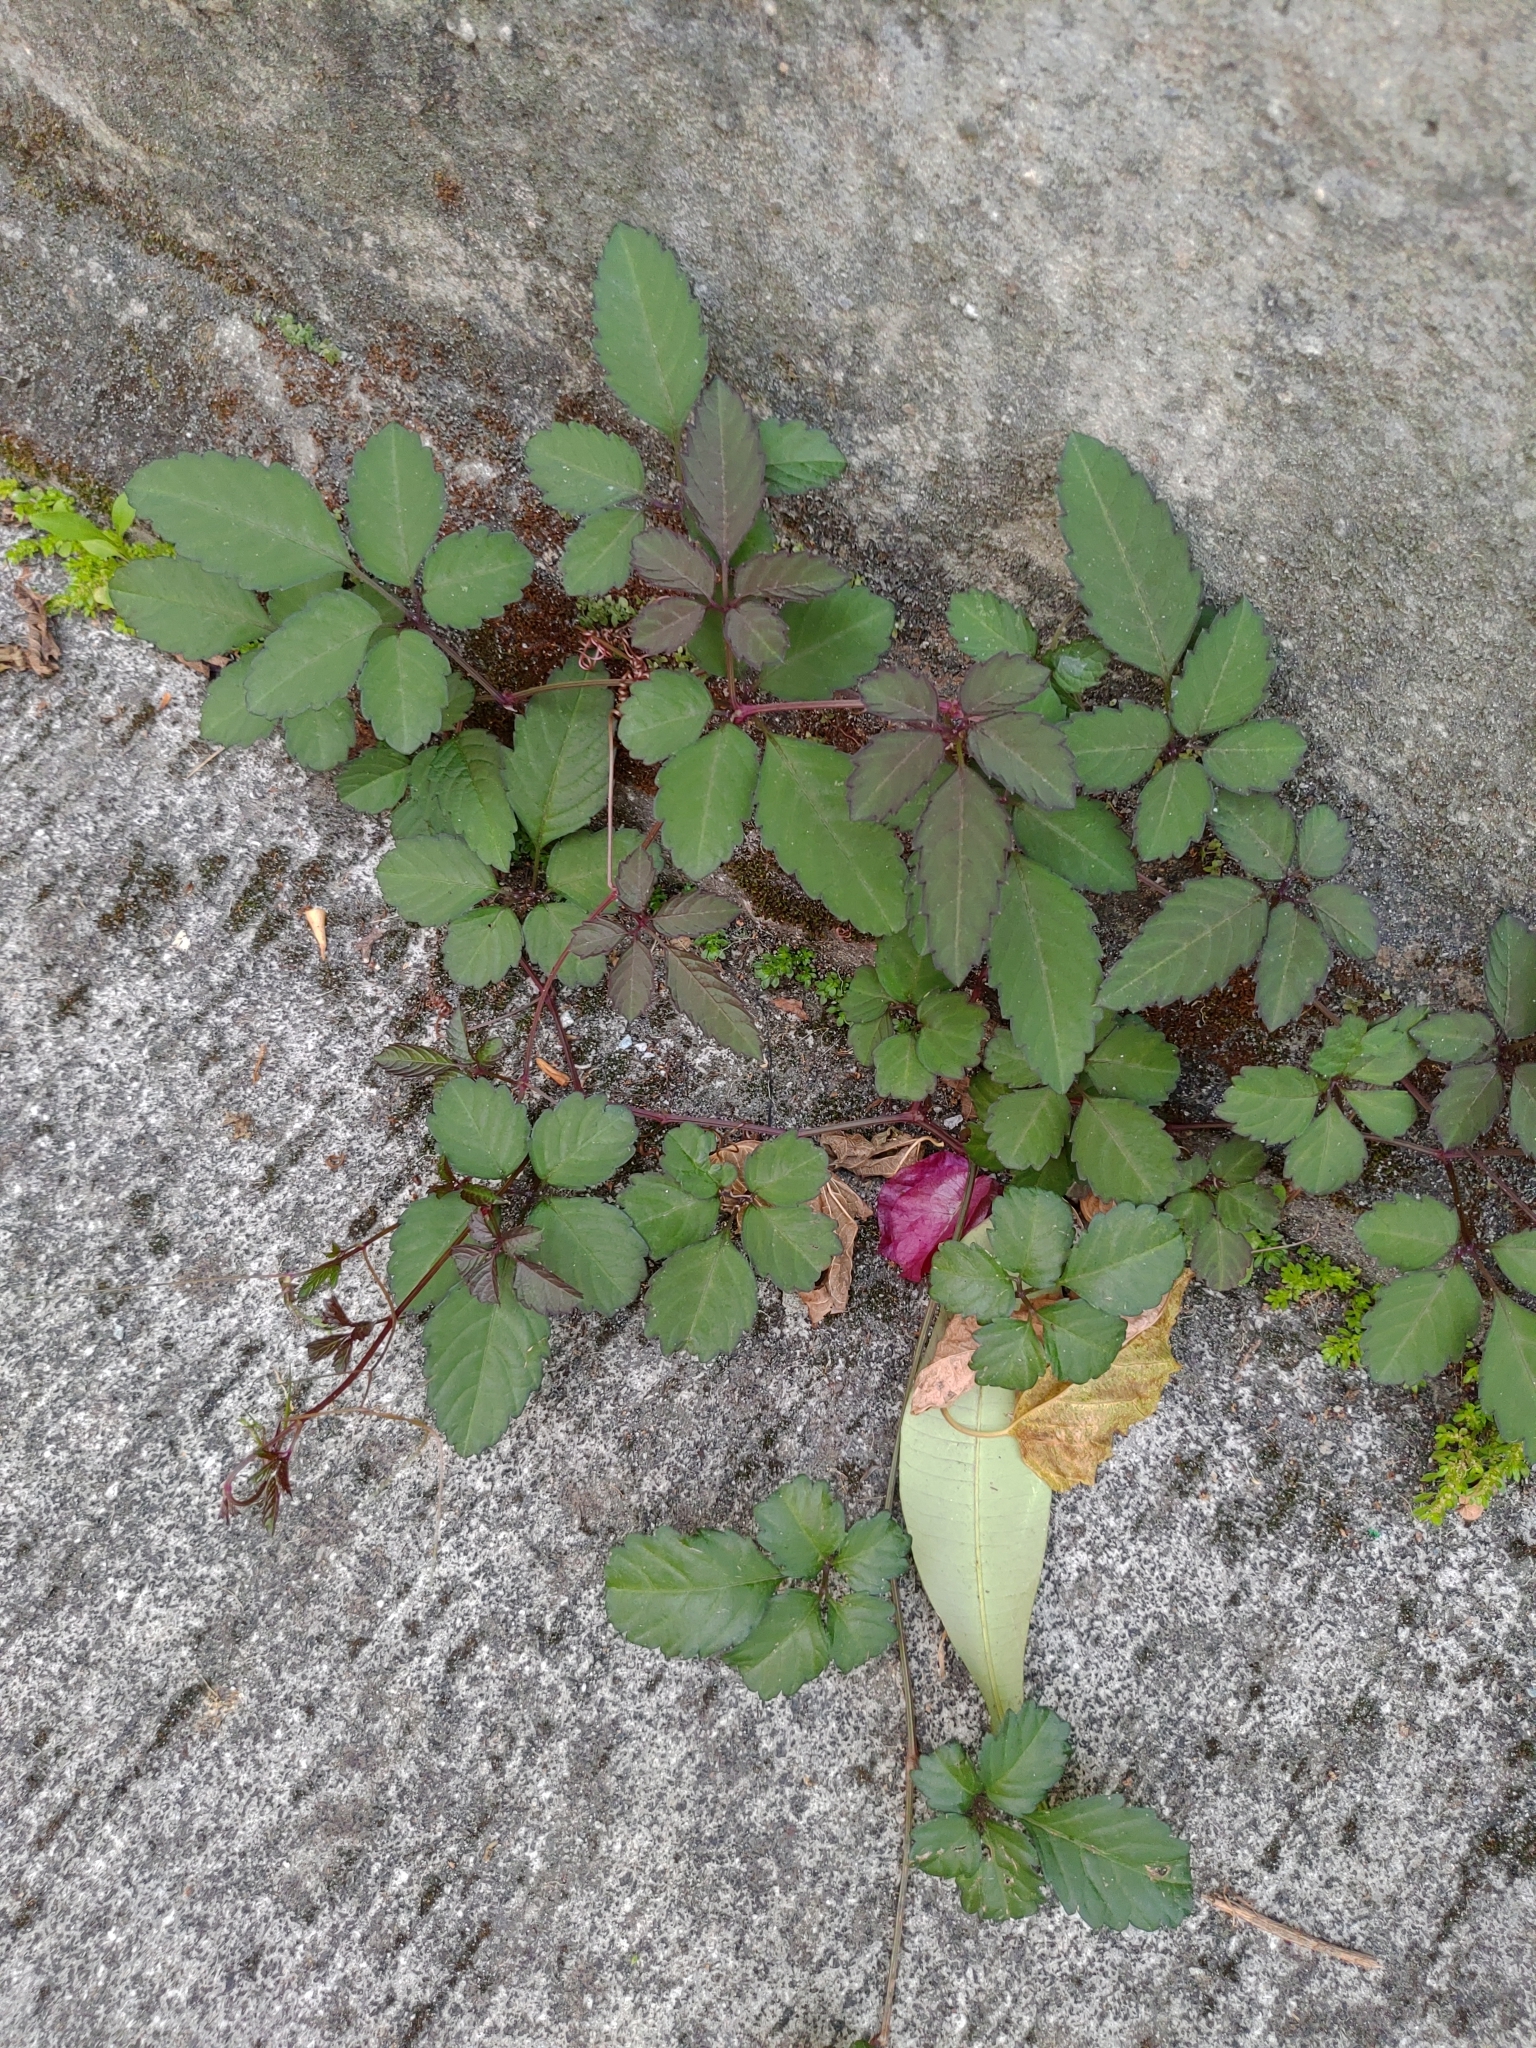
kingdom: Plantae
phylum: Tracheophyta
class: Magnoliopsida
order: Vitales
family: Vitaceae
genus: Causonis
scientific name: Causonis japonica
